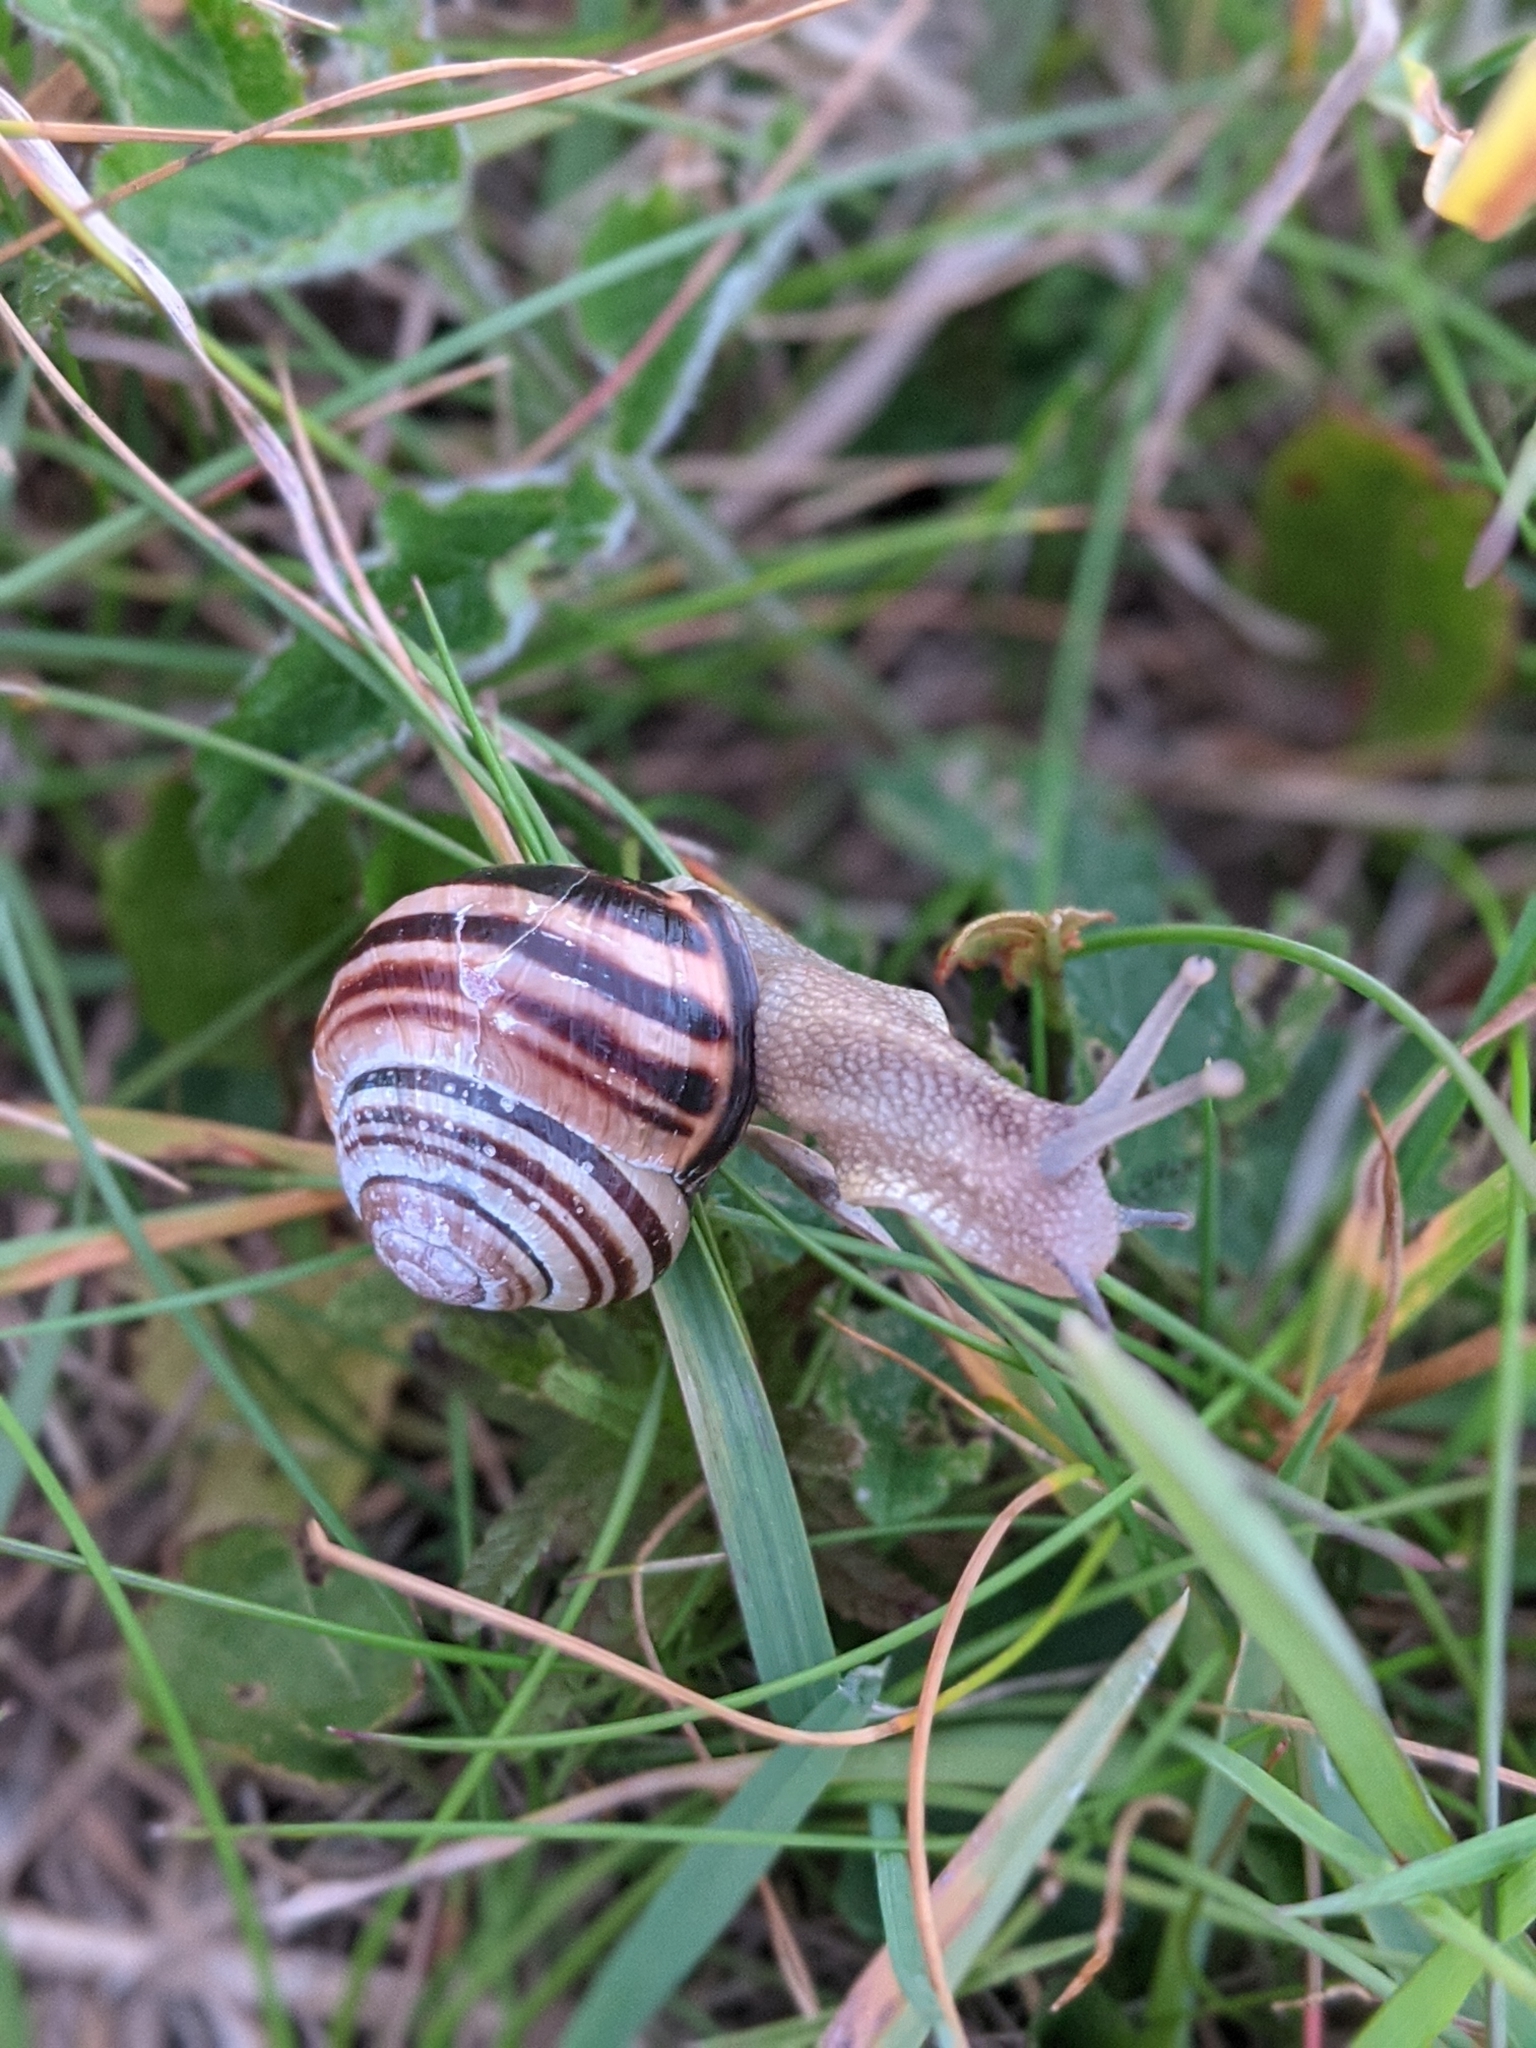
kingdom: Animalia
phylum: Mollusca
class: Gastropoda
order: Stylommatophora
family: Helicidae
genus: Cepaea
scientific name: Cepaea nemoralis
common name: Grovesnail
